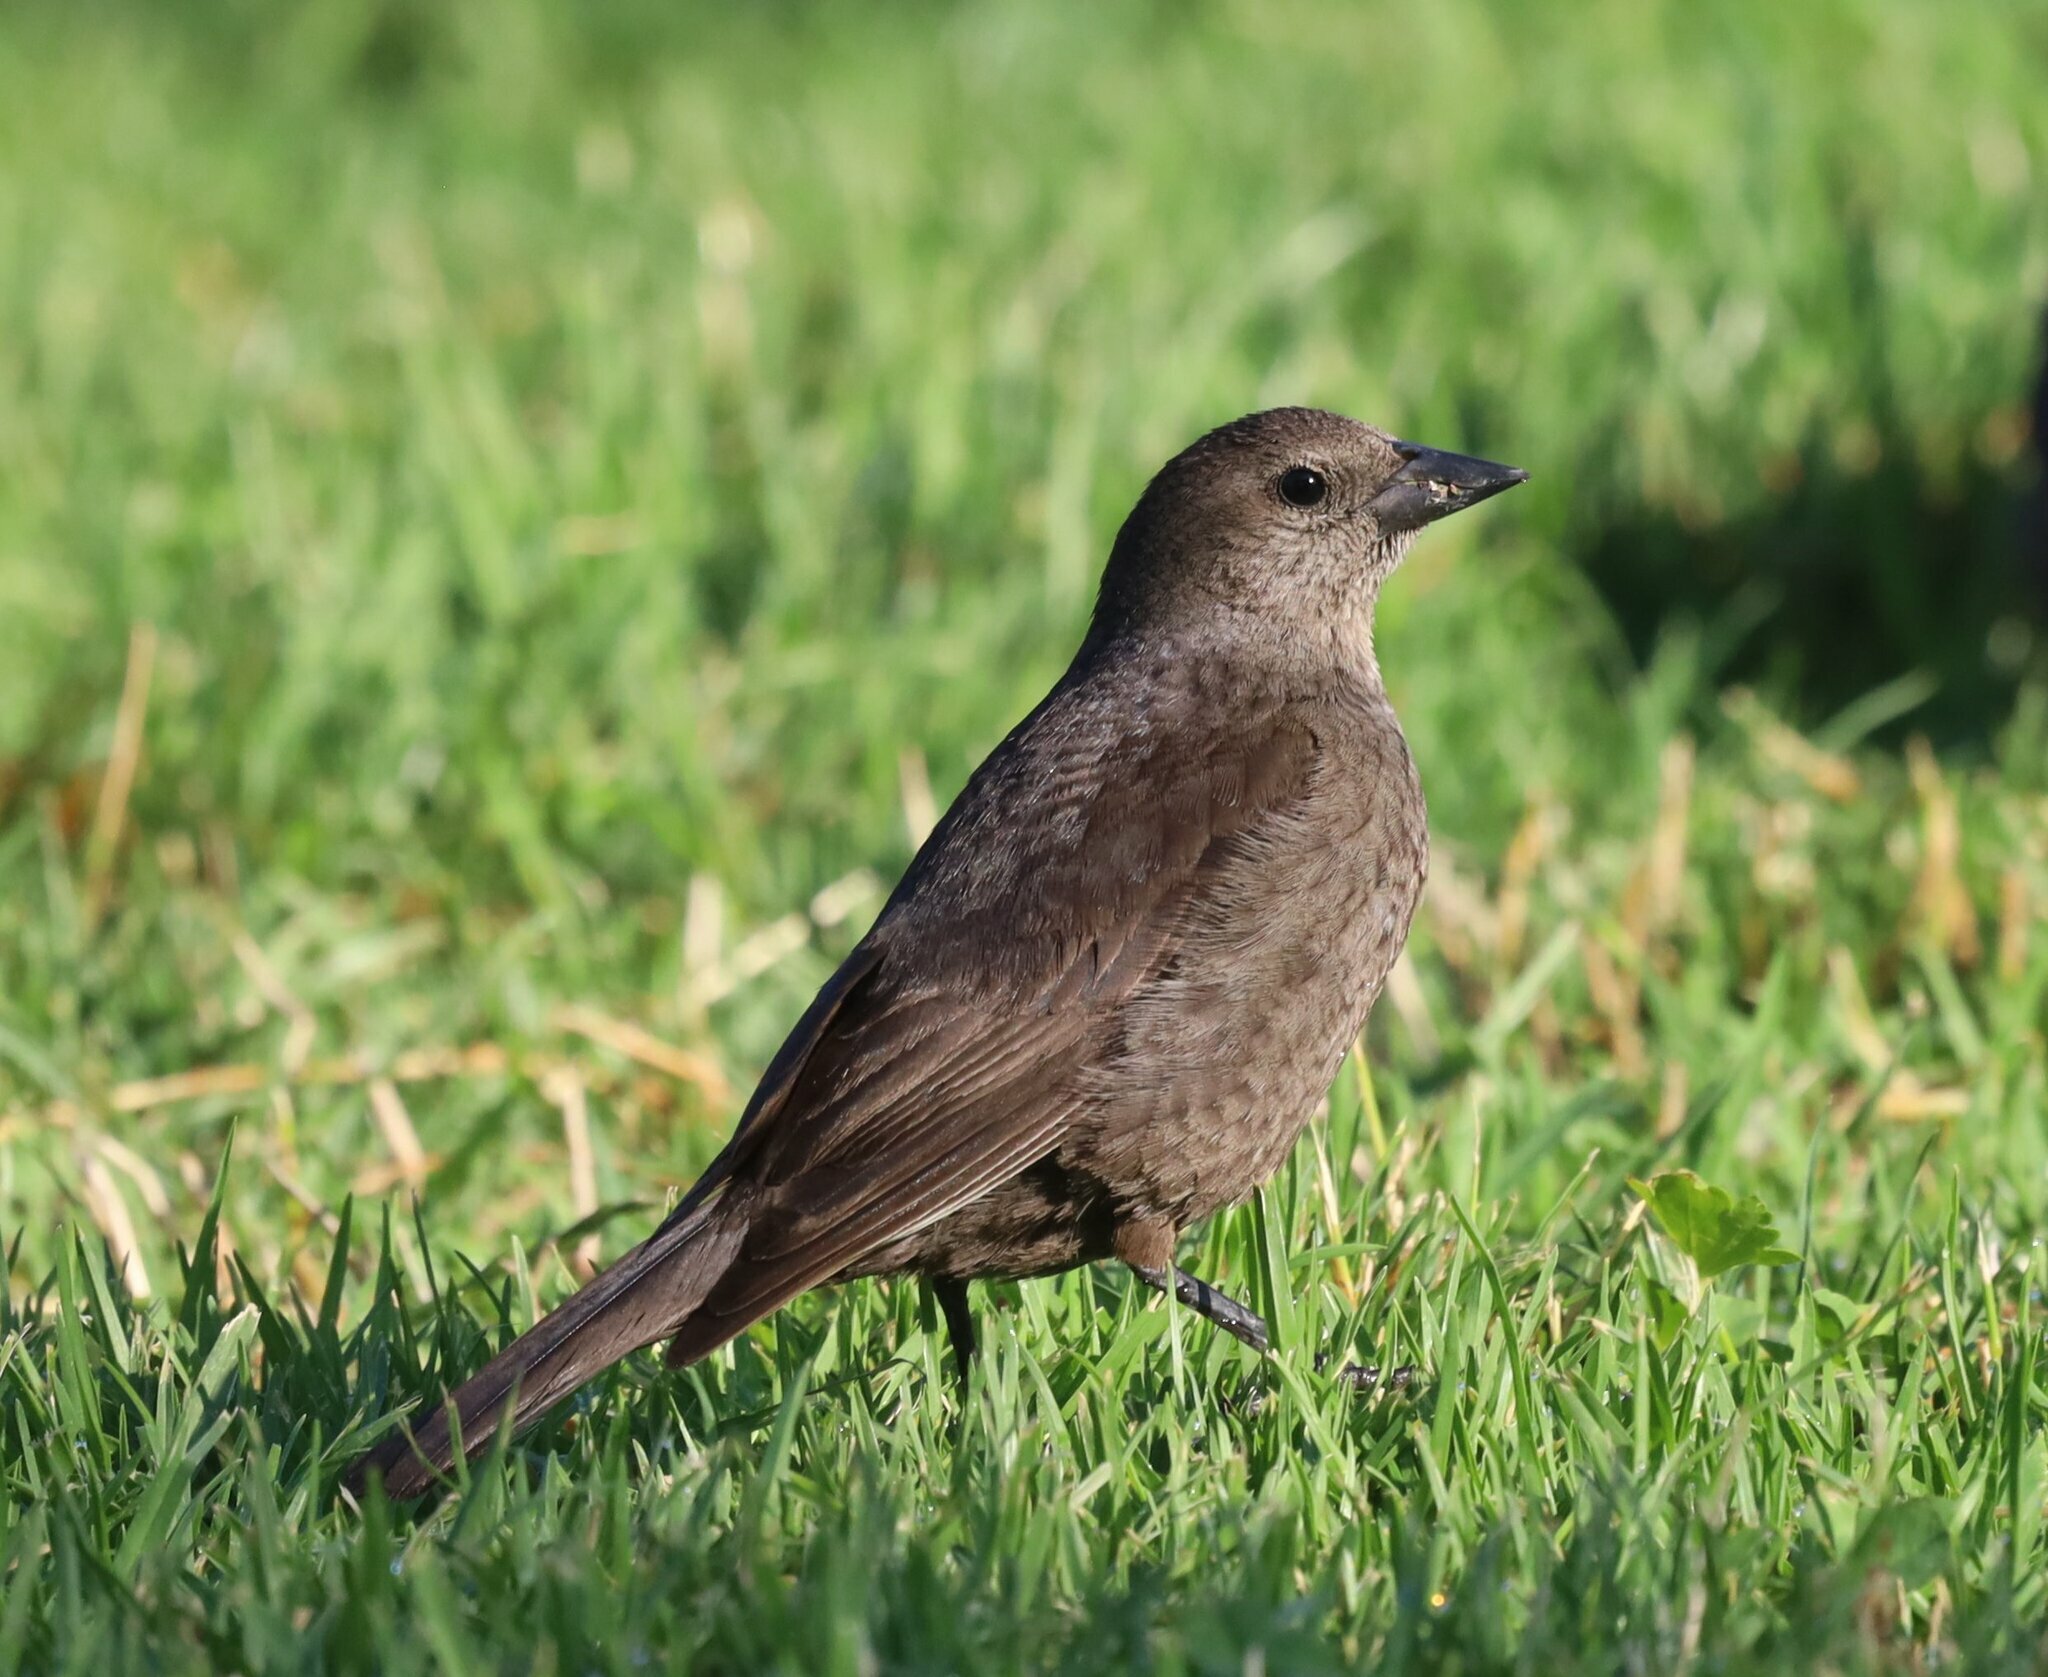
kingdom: Animalia
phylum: Chordata
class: Aves
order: Passeriformes
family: Icteridae
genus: Molothrus
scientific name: Molothrus bonariensis
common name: Shiny cowbird
